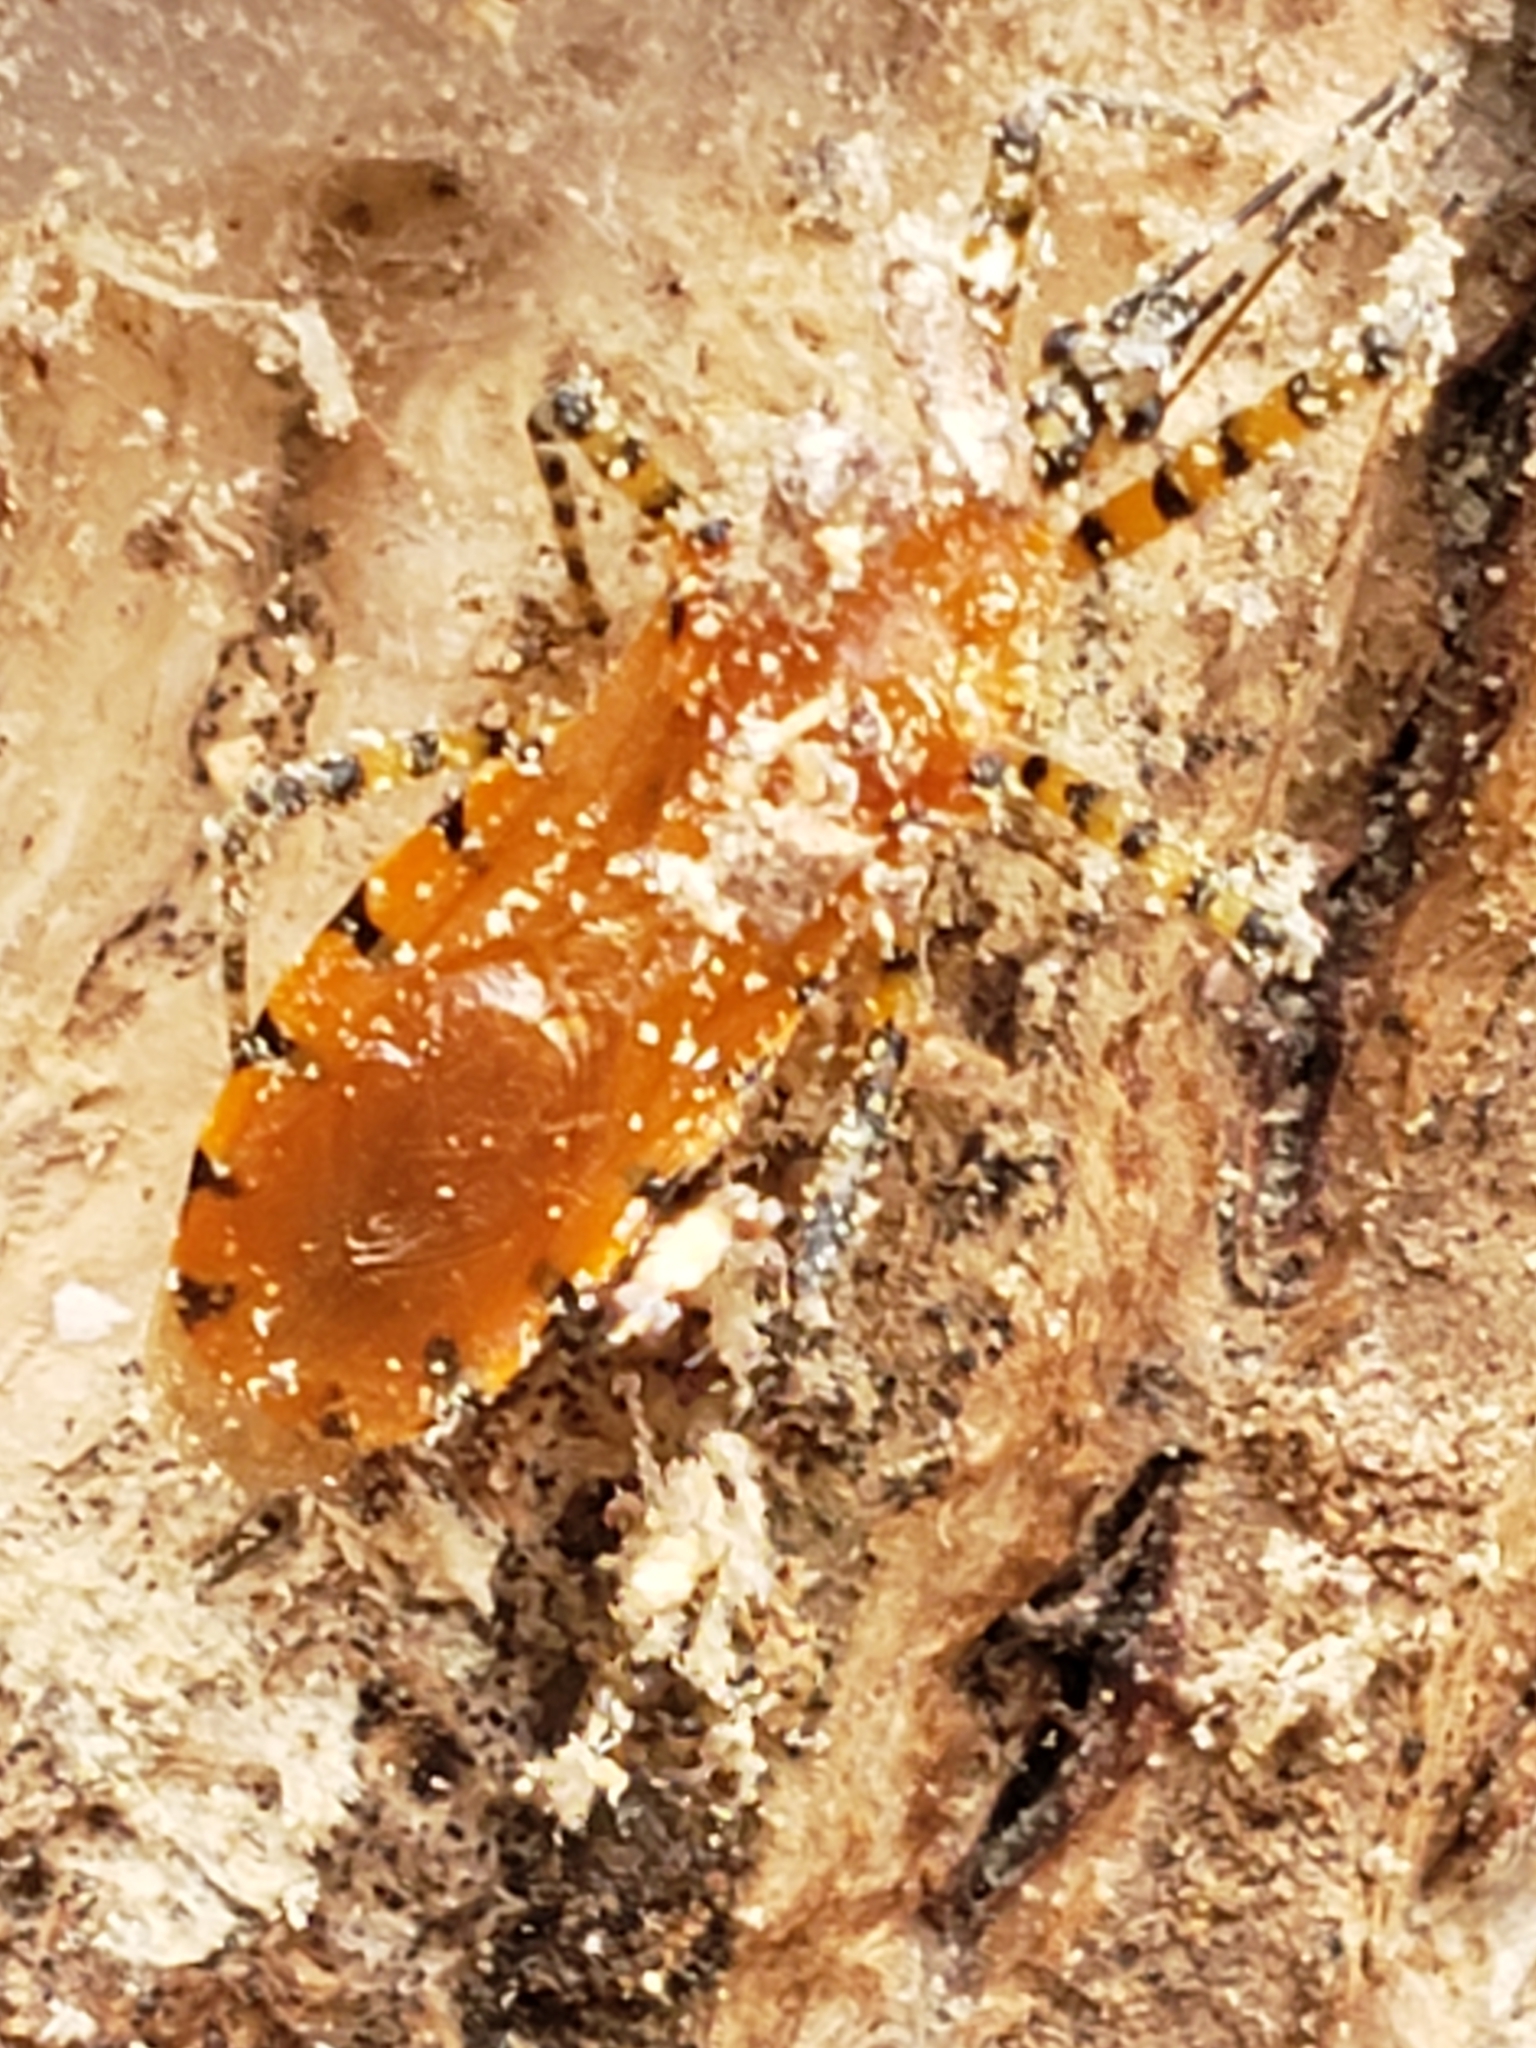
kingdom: Animalia
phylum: Arthropoda
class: Insecta
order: Hemiptera
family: Reduviidae
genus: Pselliopus
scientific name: Pselliopus barberi
